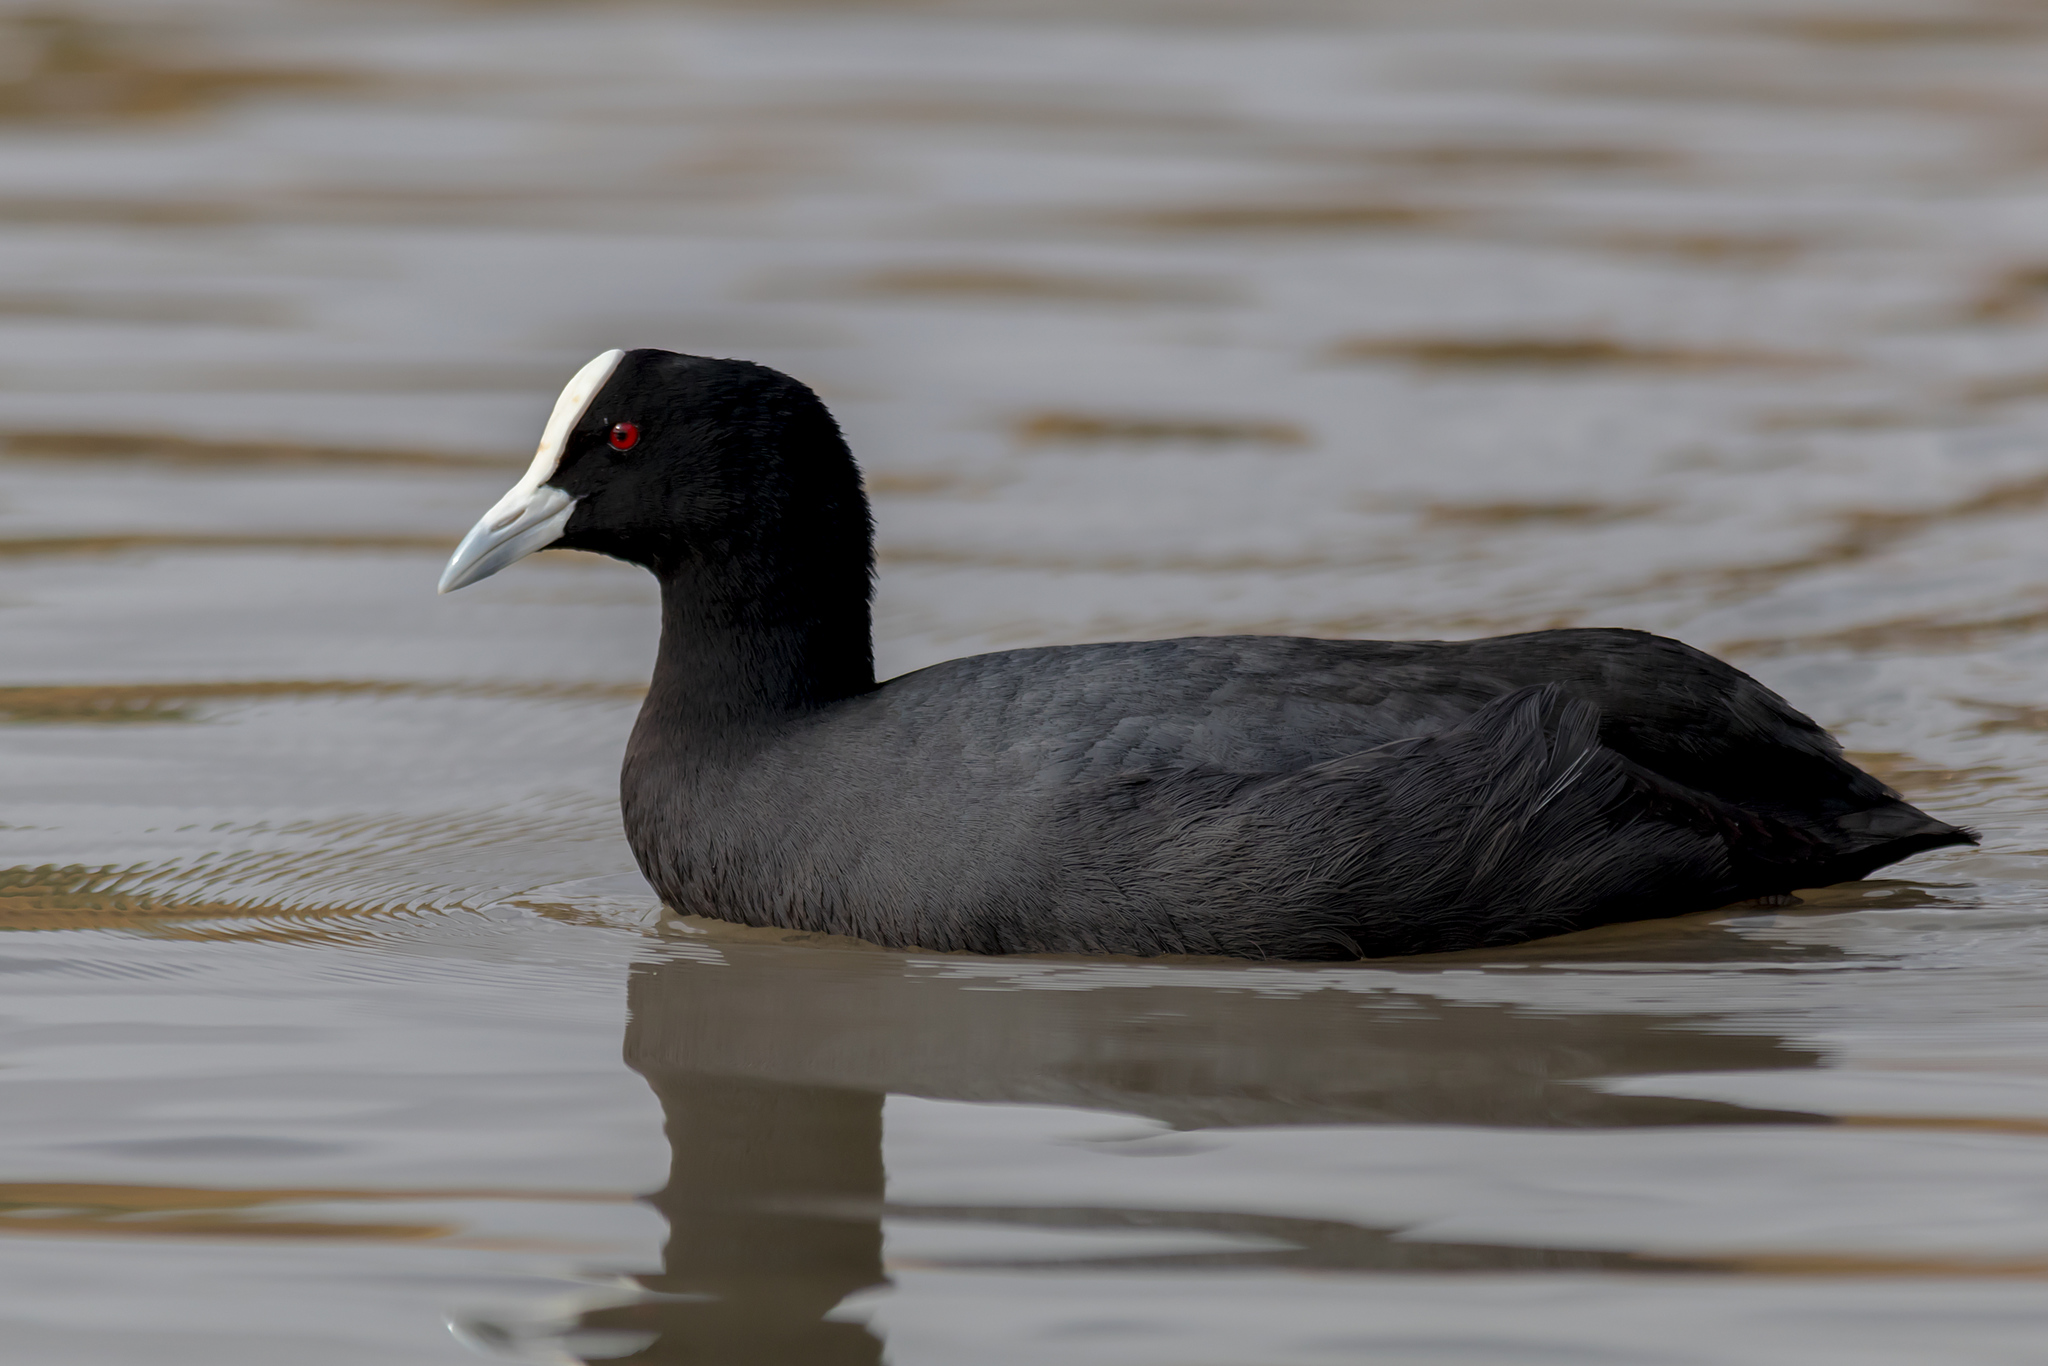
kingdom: Animalia
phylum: Chordata
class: Aves
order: Gruiformes
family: Rallidae
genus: Fulica
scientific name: Fulica atra
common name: Eurasian coot
